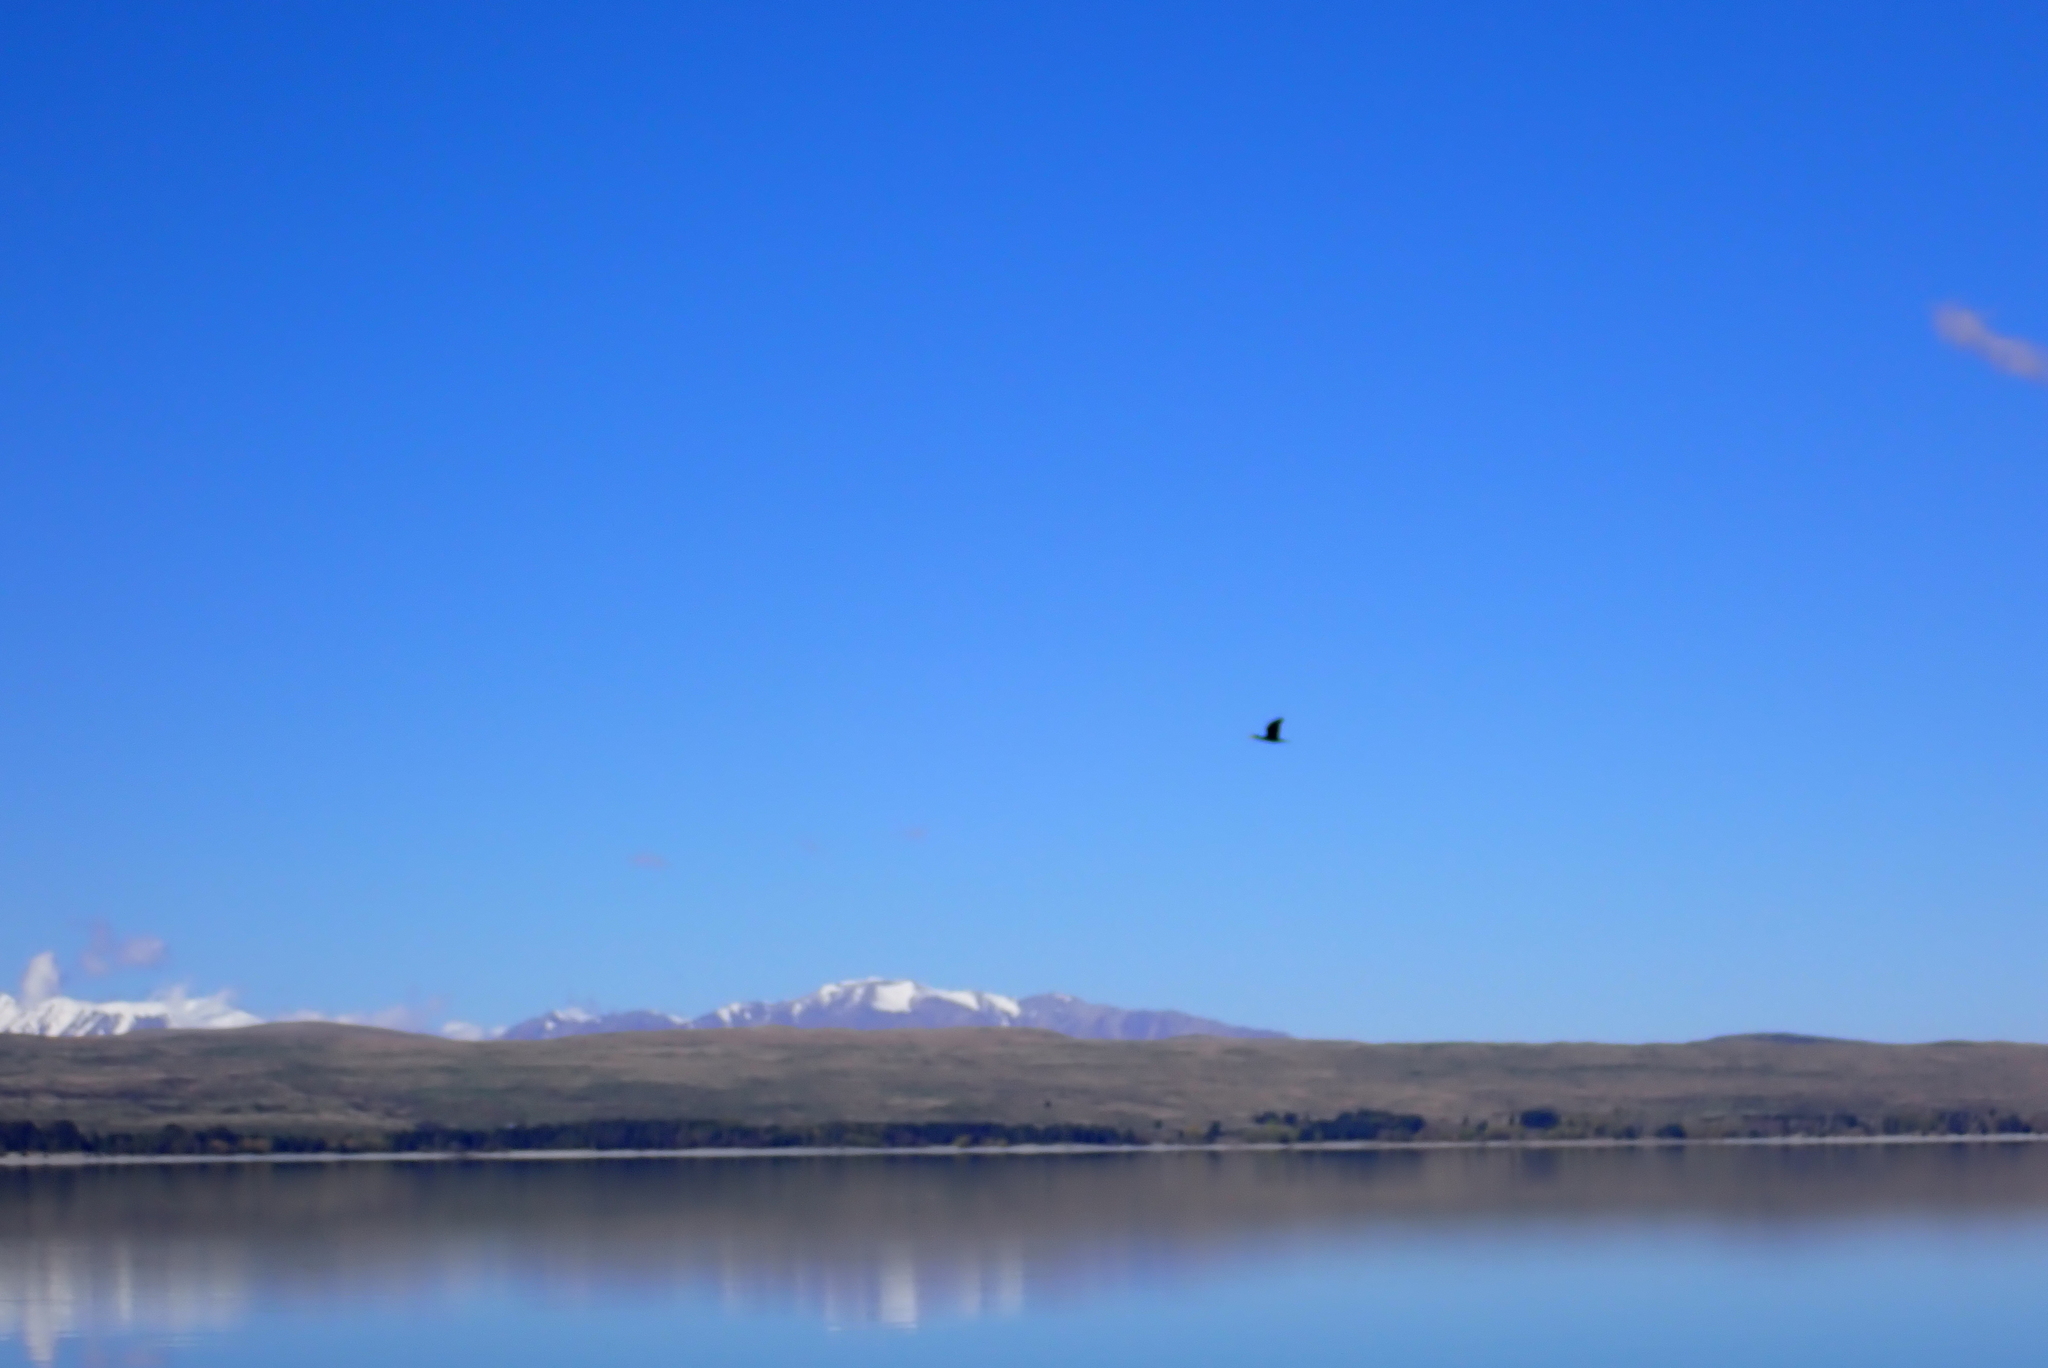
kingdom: Animalia
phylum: Chordata
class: Aves
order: Suliformes
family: Phalacrocoracidae
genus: Phalacrocorax
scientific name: Phalacrocorax carbo
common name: Great cormorant
